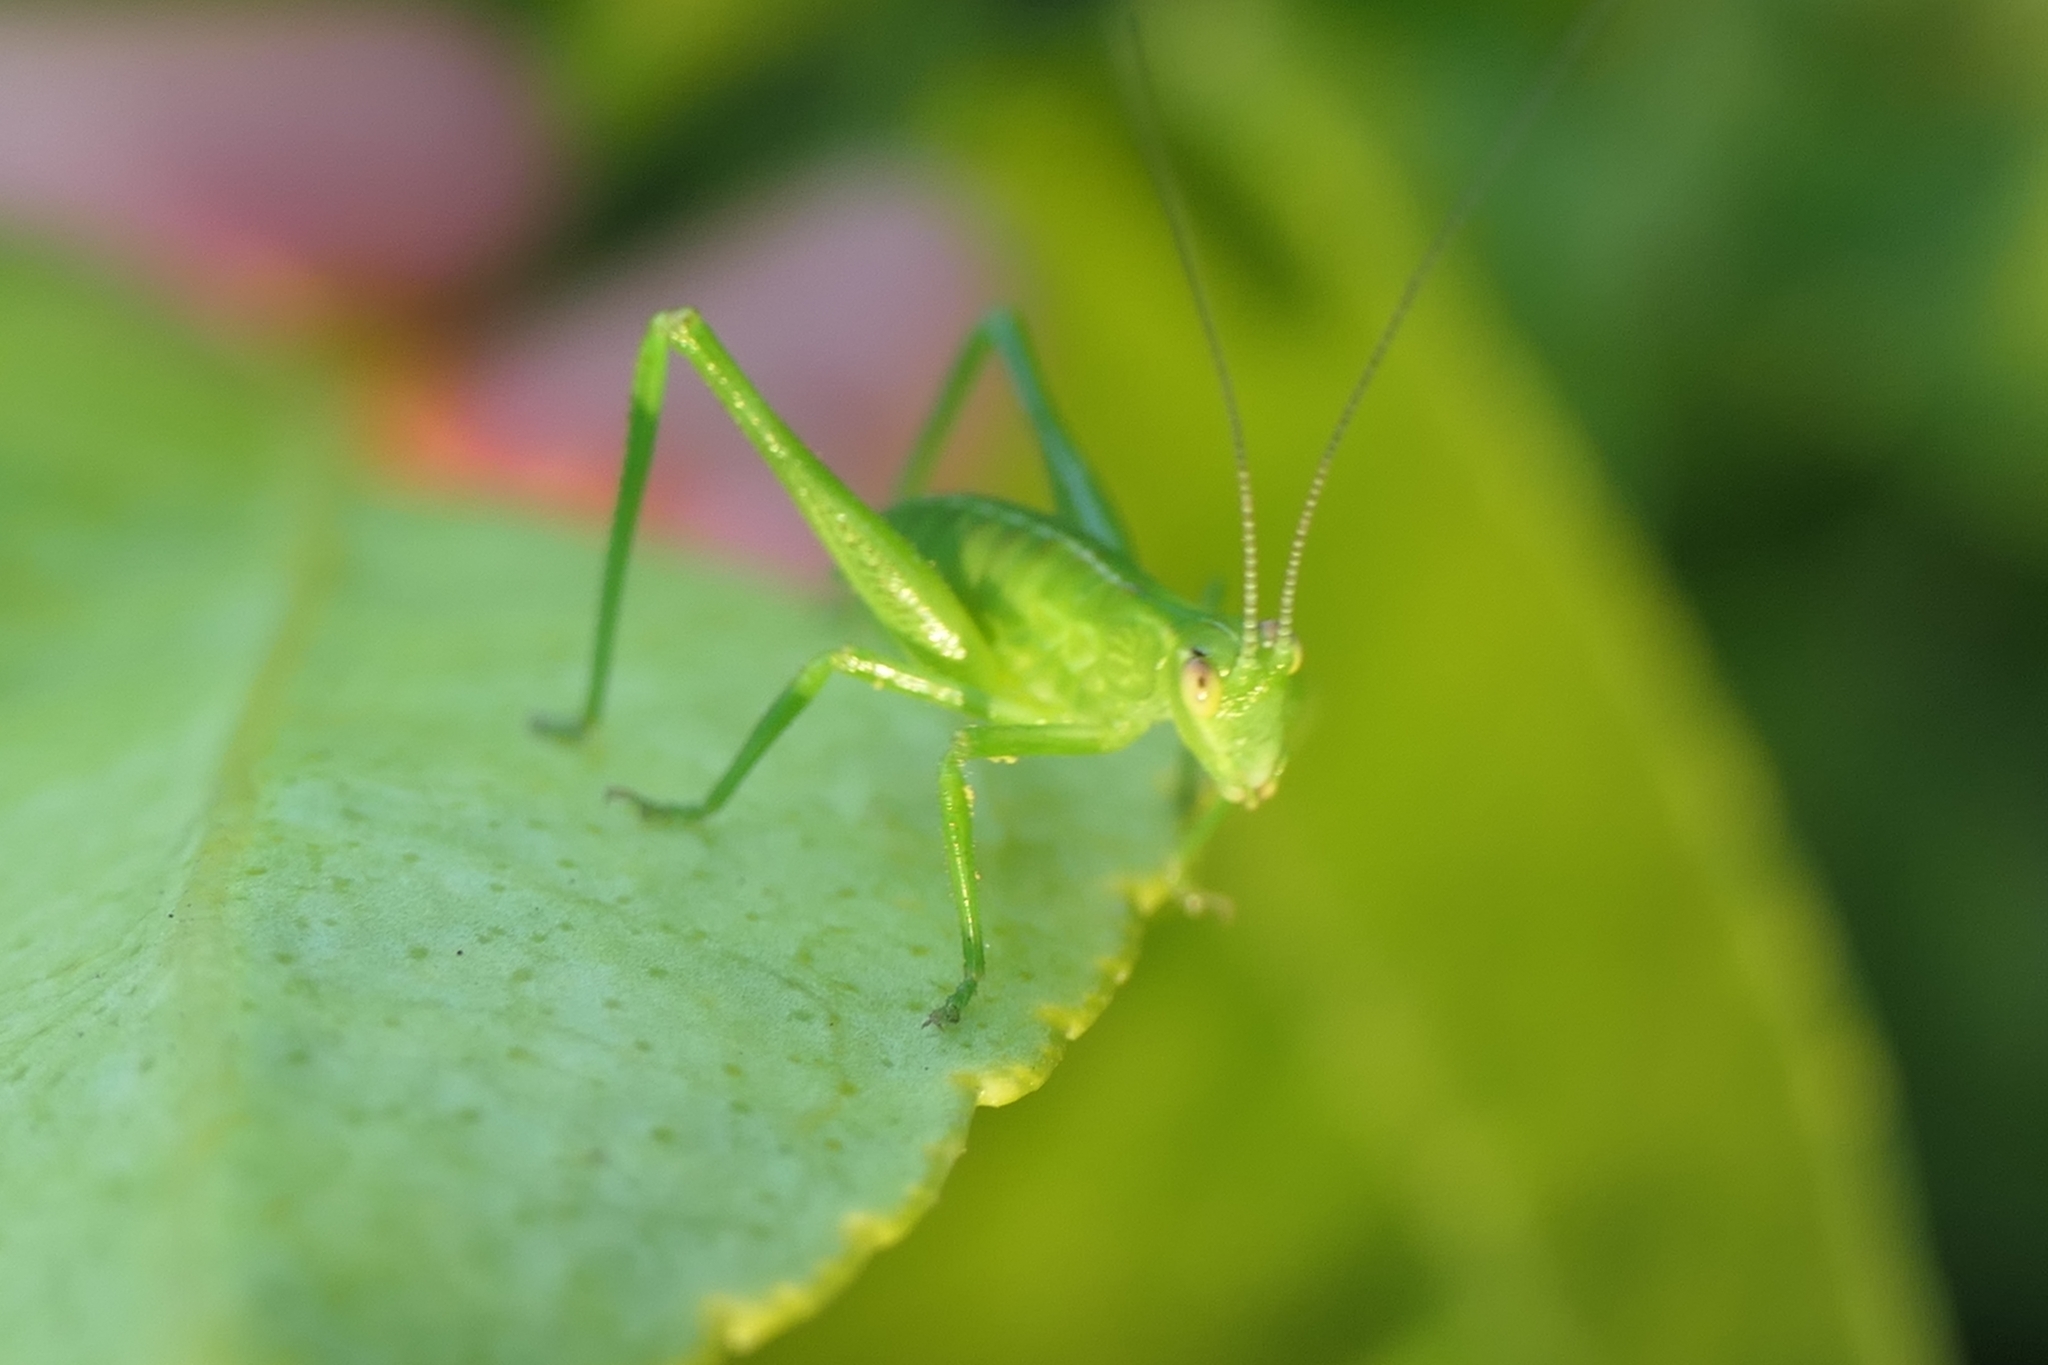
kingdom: Animalia
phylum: Arthropoda
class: Insecta
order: Orthoptera
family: Tettigoniidae
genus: Caedicia
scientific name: Caedicia simplex
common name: Common garden katydid
